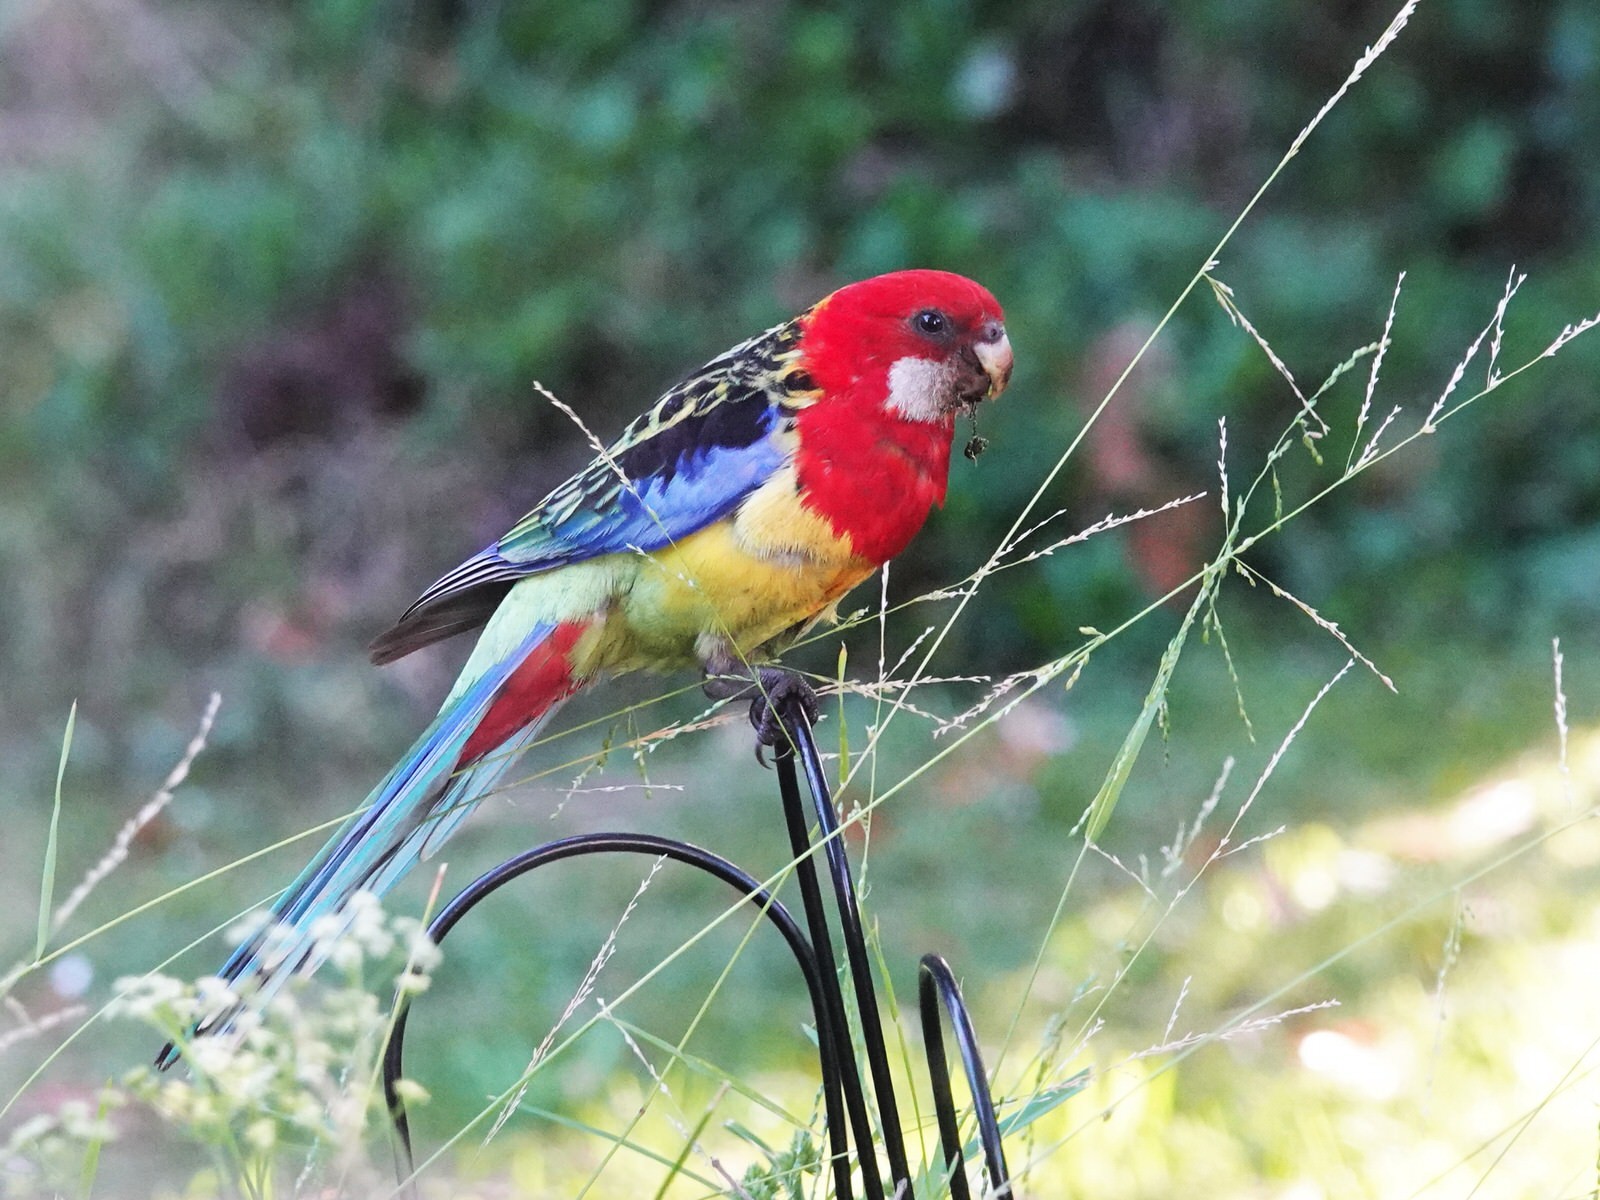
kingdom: Animalia
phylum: Chordata
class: Aves
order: Psittaciformes
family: Psittacidae
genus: Platycercus
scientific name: Platycercus eximius
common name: Eastern rosella
